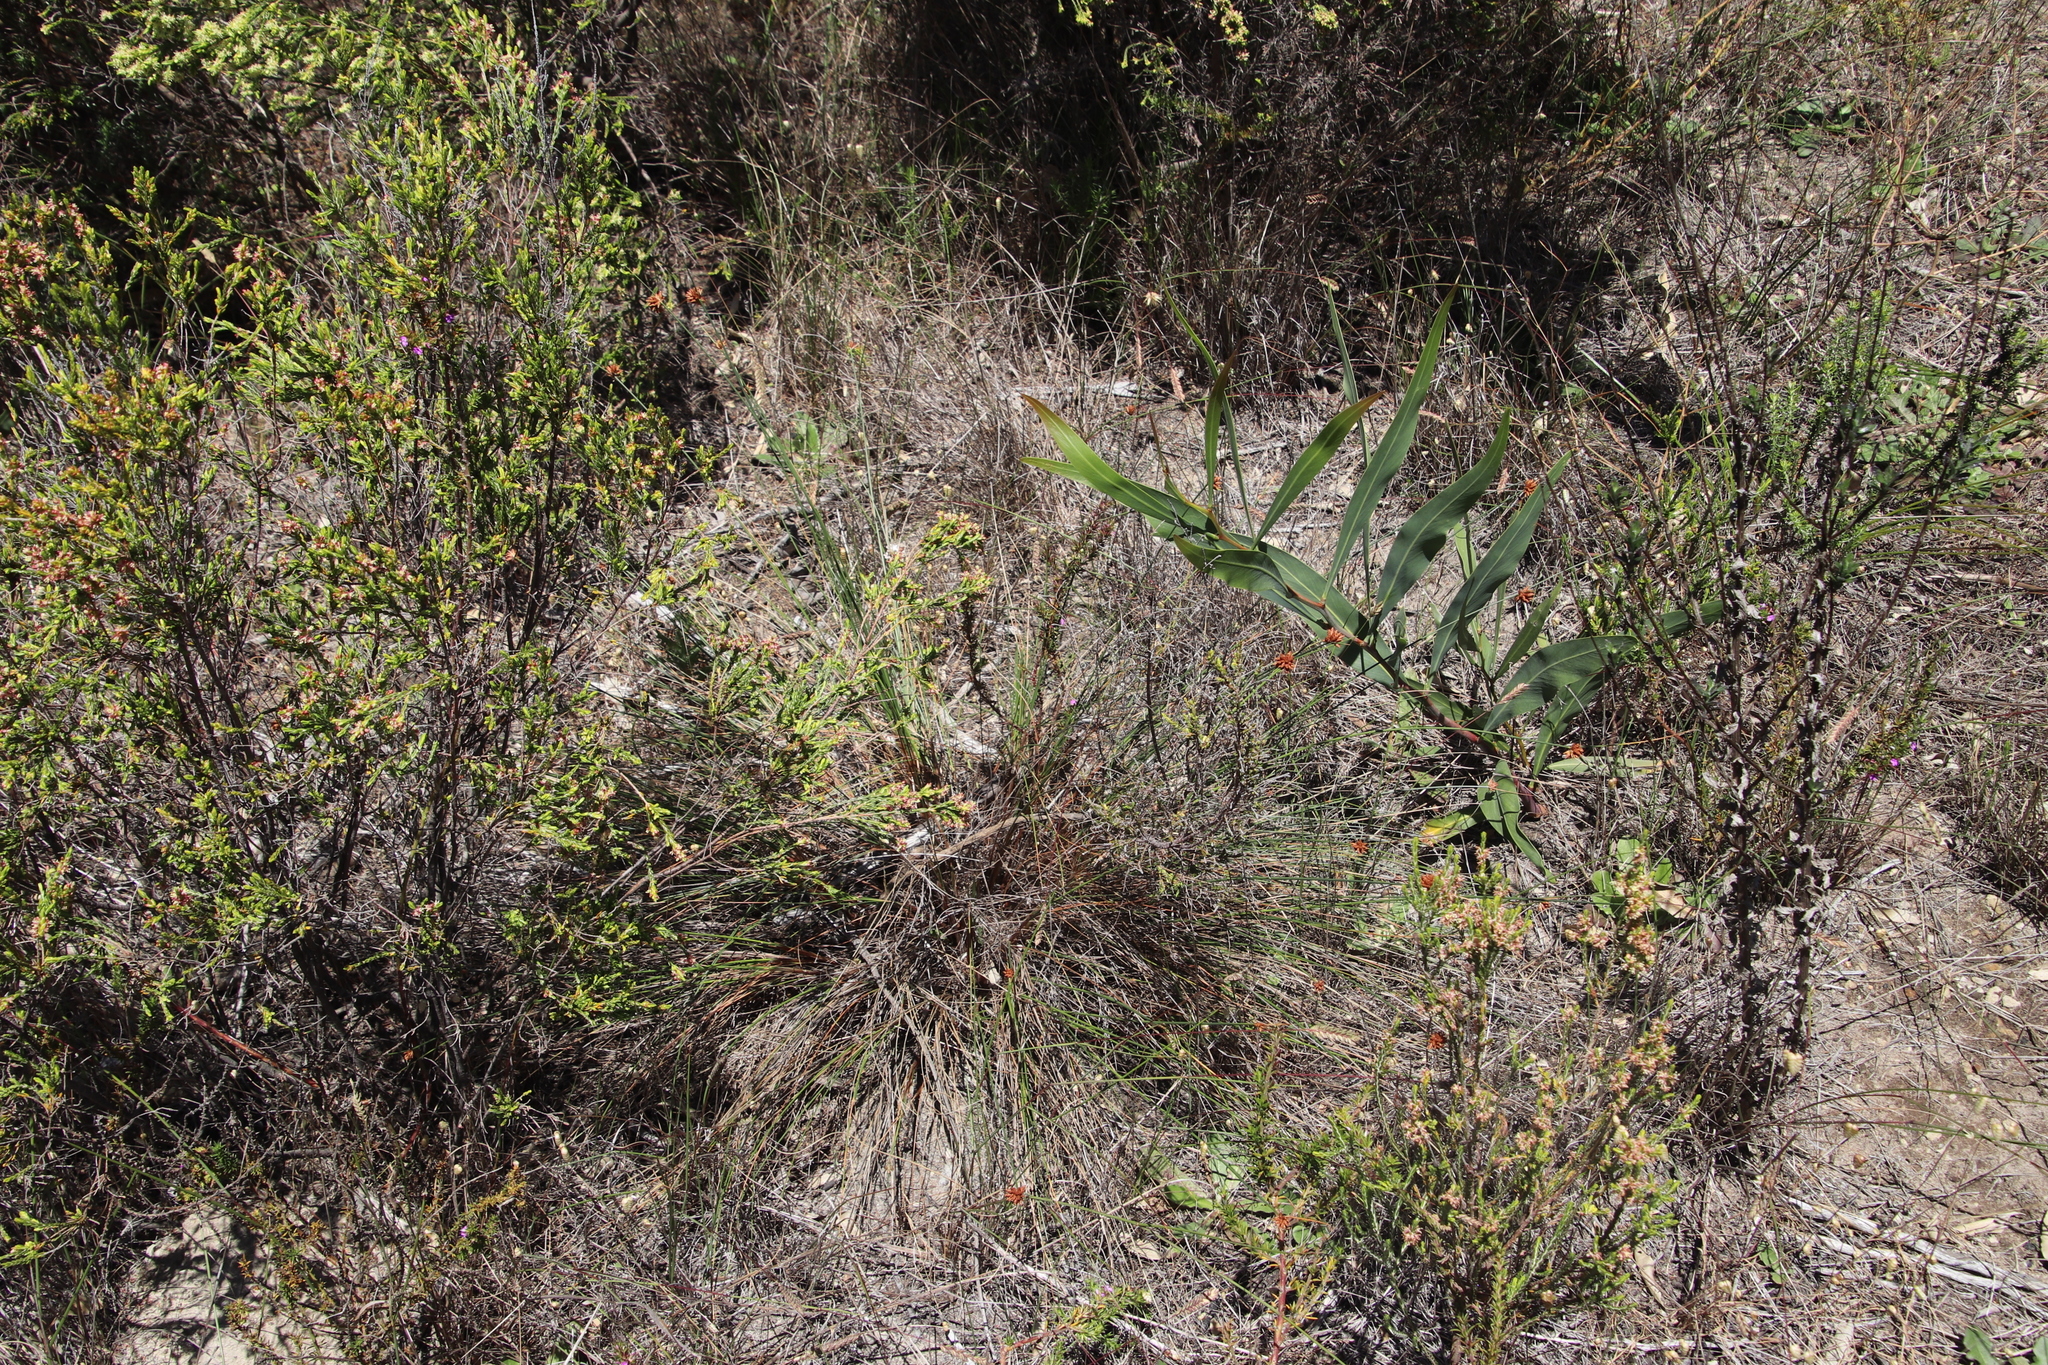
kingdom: Plantae
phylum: Tracheophyta
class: Liliopsida
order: Poales
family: Cyperaceae
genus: Ficinia
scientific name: Ficinia ecklonea
